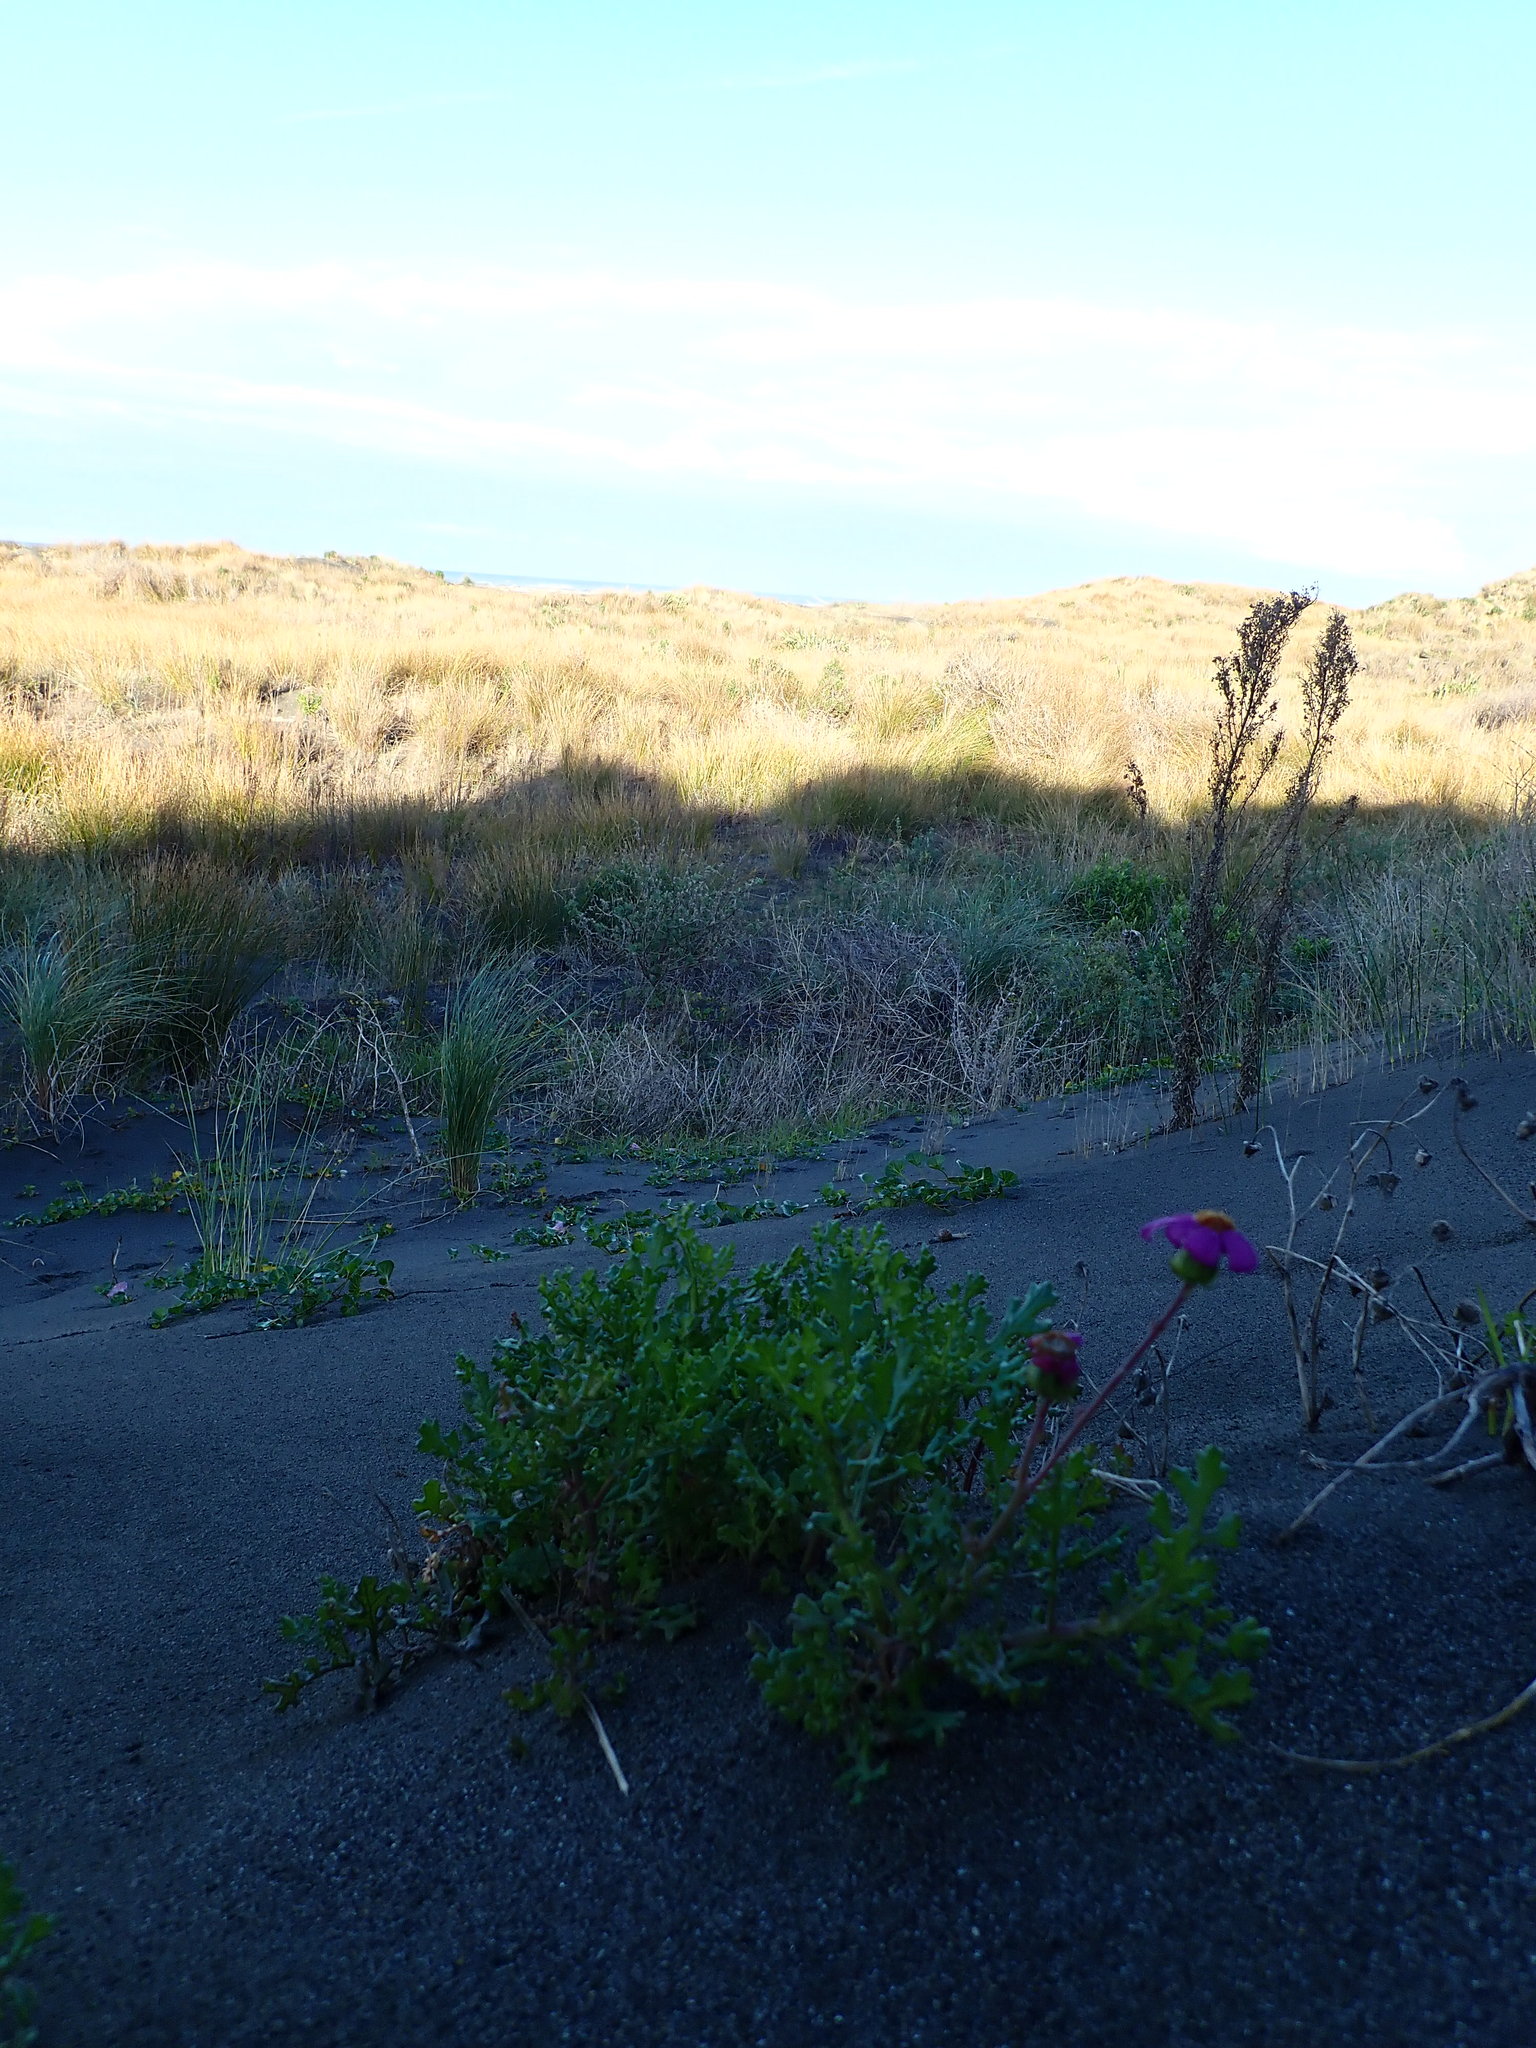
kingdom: Plantae
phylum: Tracheophyta
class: Magnoliopsida
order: Asterales
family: Asteraceae
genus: Senecio
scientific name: Senecio elegans
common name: Purple groundsel
